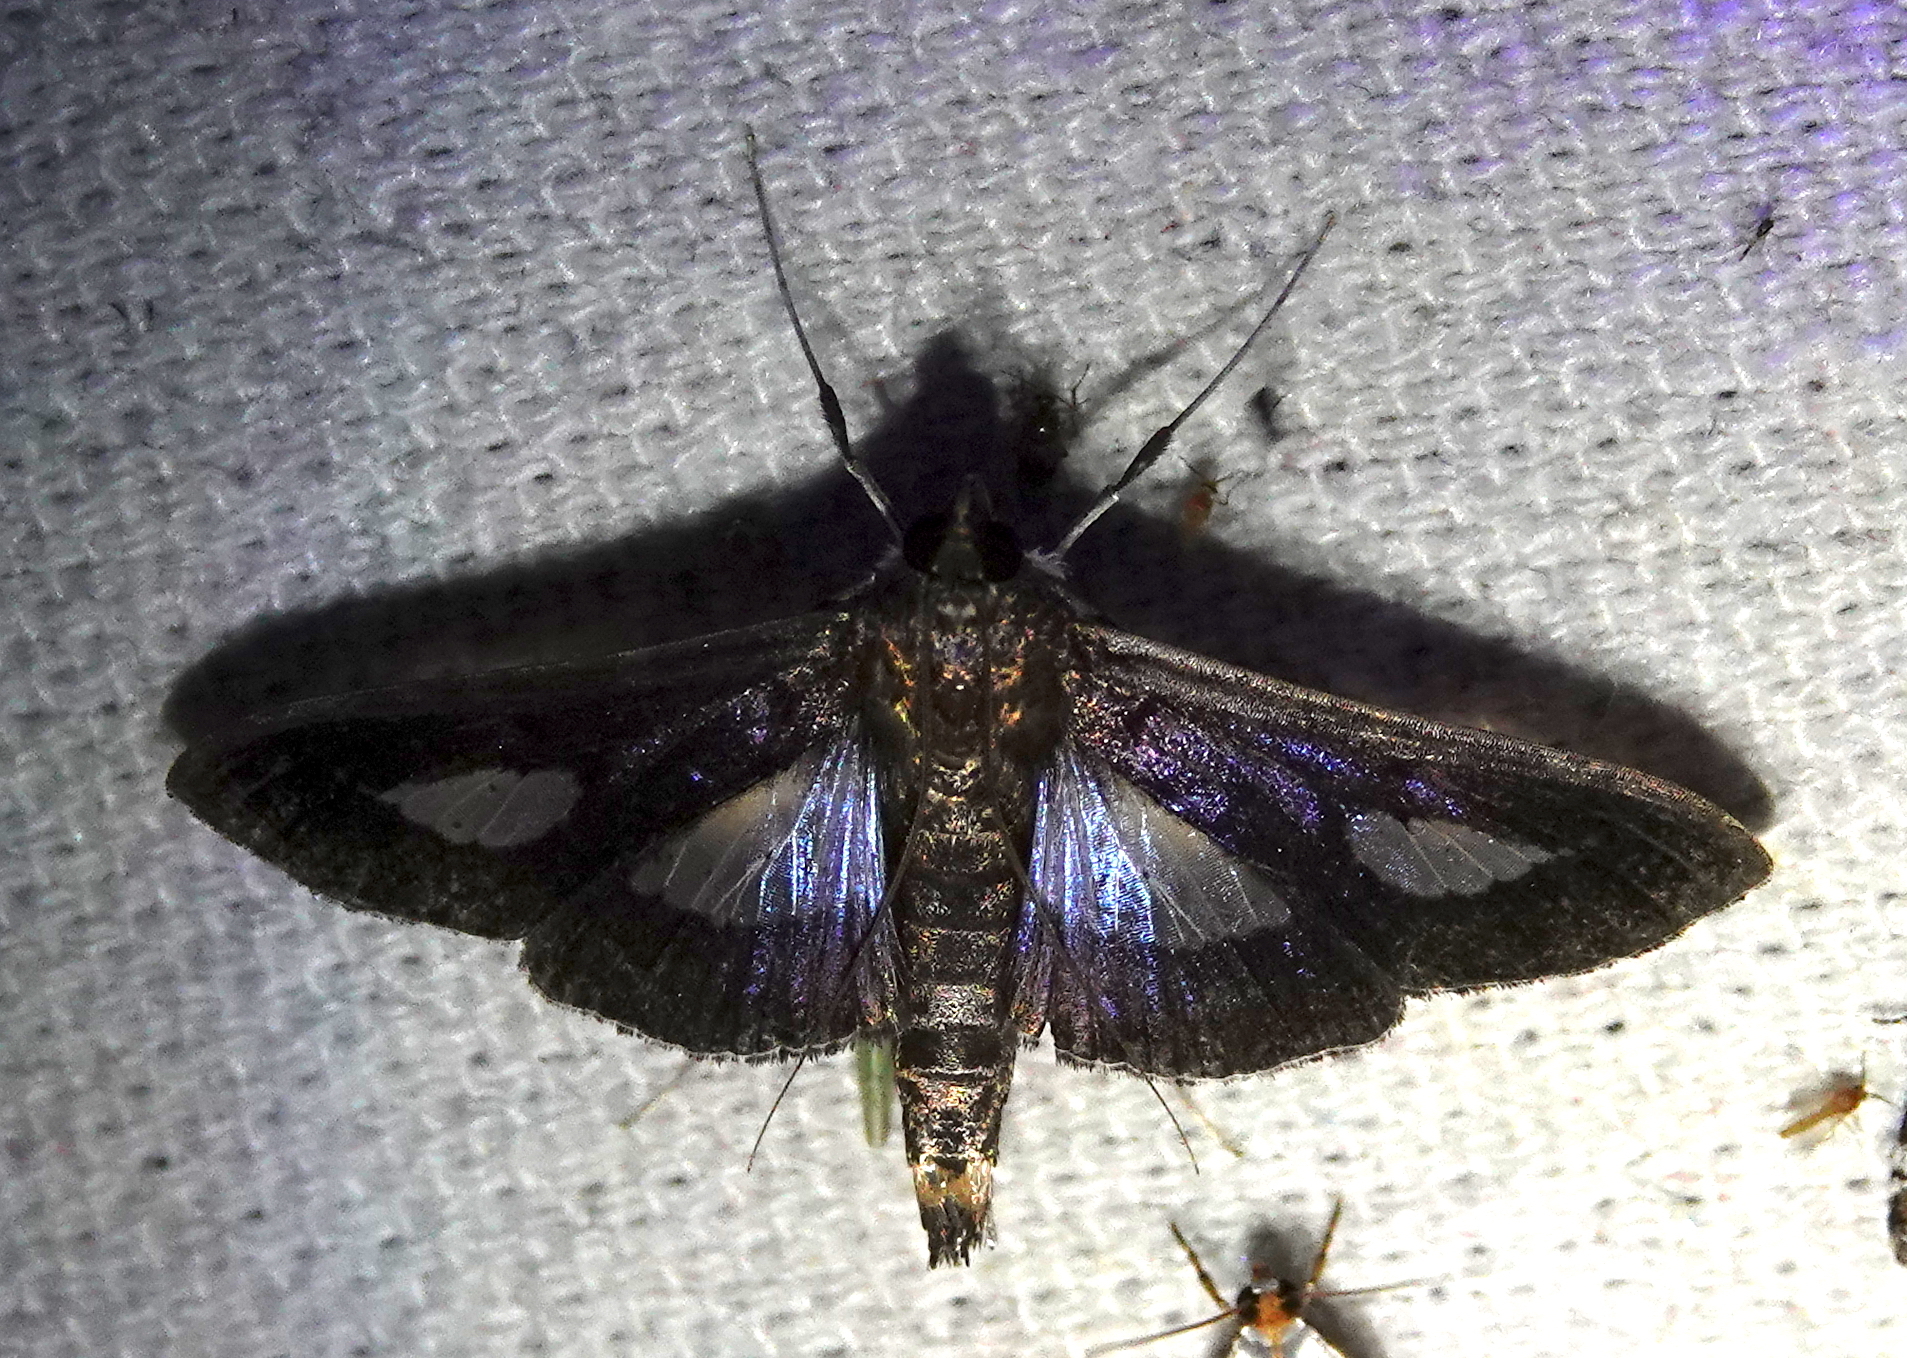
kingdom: Animalia
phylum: Arthropoda
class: Insecta
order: Lepidoptera
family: Crambidae
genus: Diaphania
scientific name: Diaphania
